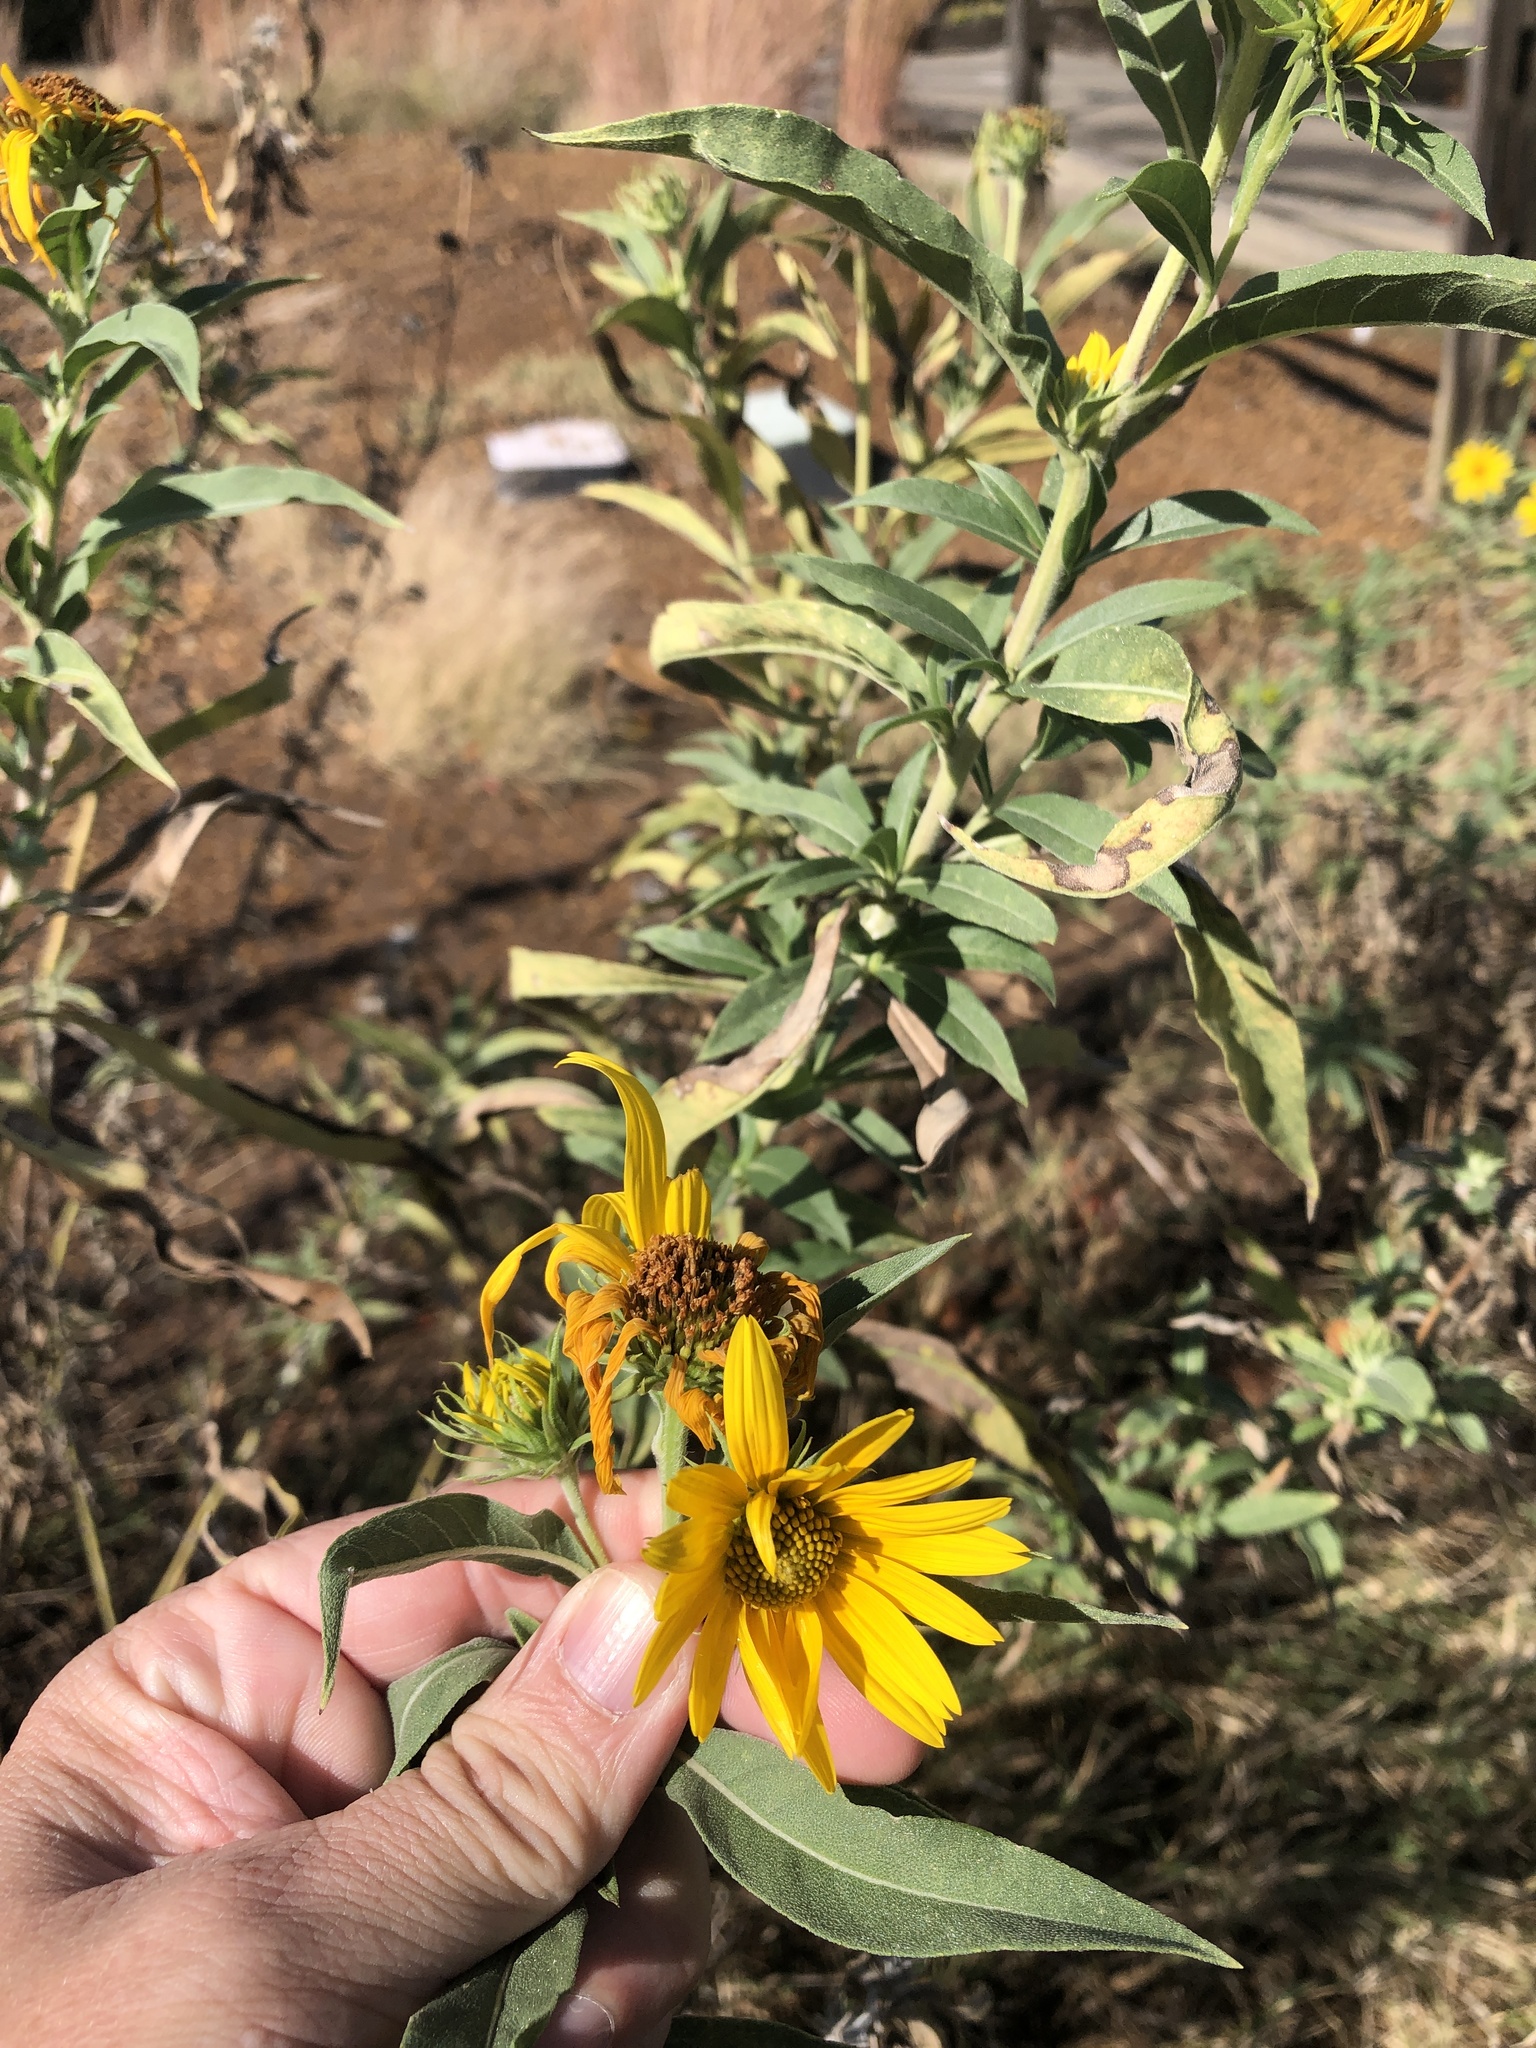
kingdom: Plantae
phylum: Tracheophyta
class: Magnoliopsida
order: Asterales
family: Asteraceae
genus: Helianthus
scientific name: Helianthus maximiliani
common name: Maximilian's sunflower
